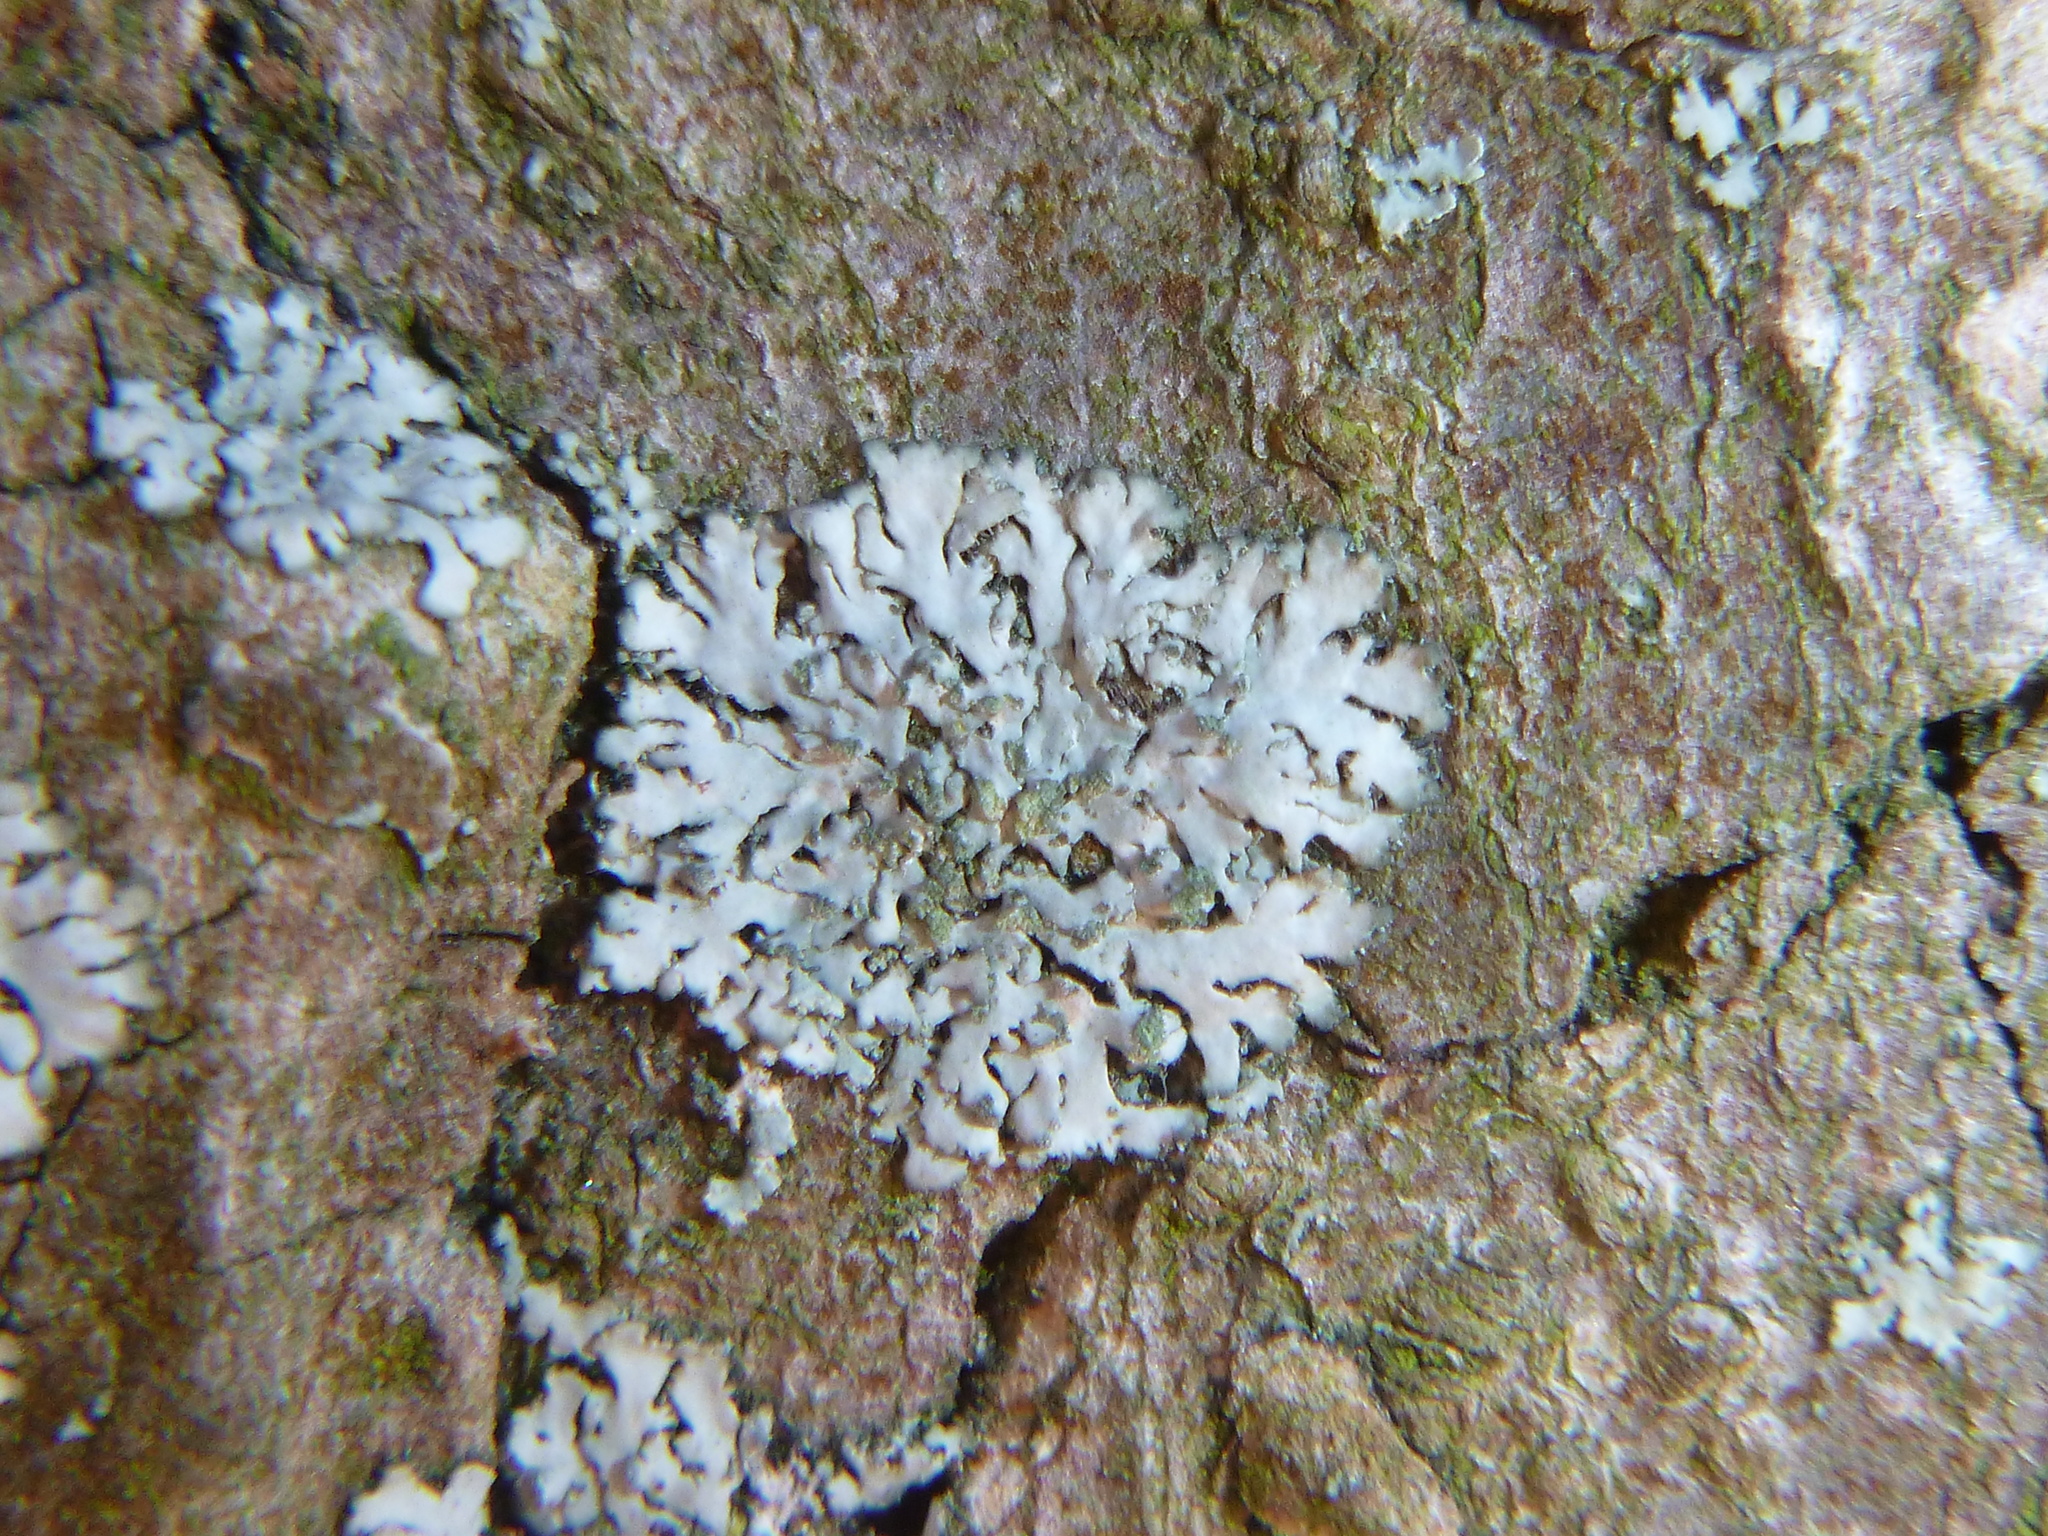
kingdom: Fungi
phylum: Ascomycota
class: Lecanoromycetes
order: Caliciales
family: Physciaceae
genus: Phaeophyscia
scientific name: Phaeophyscia orbicularis
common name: Mealy shadow lichen
